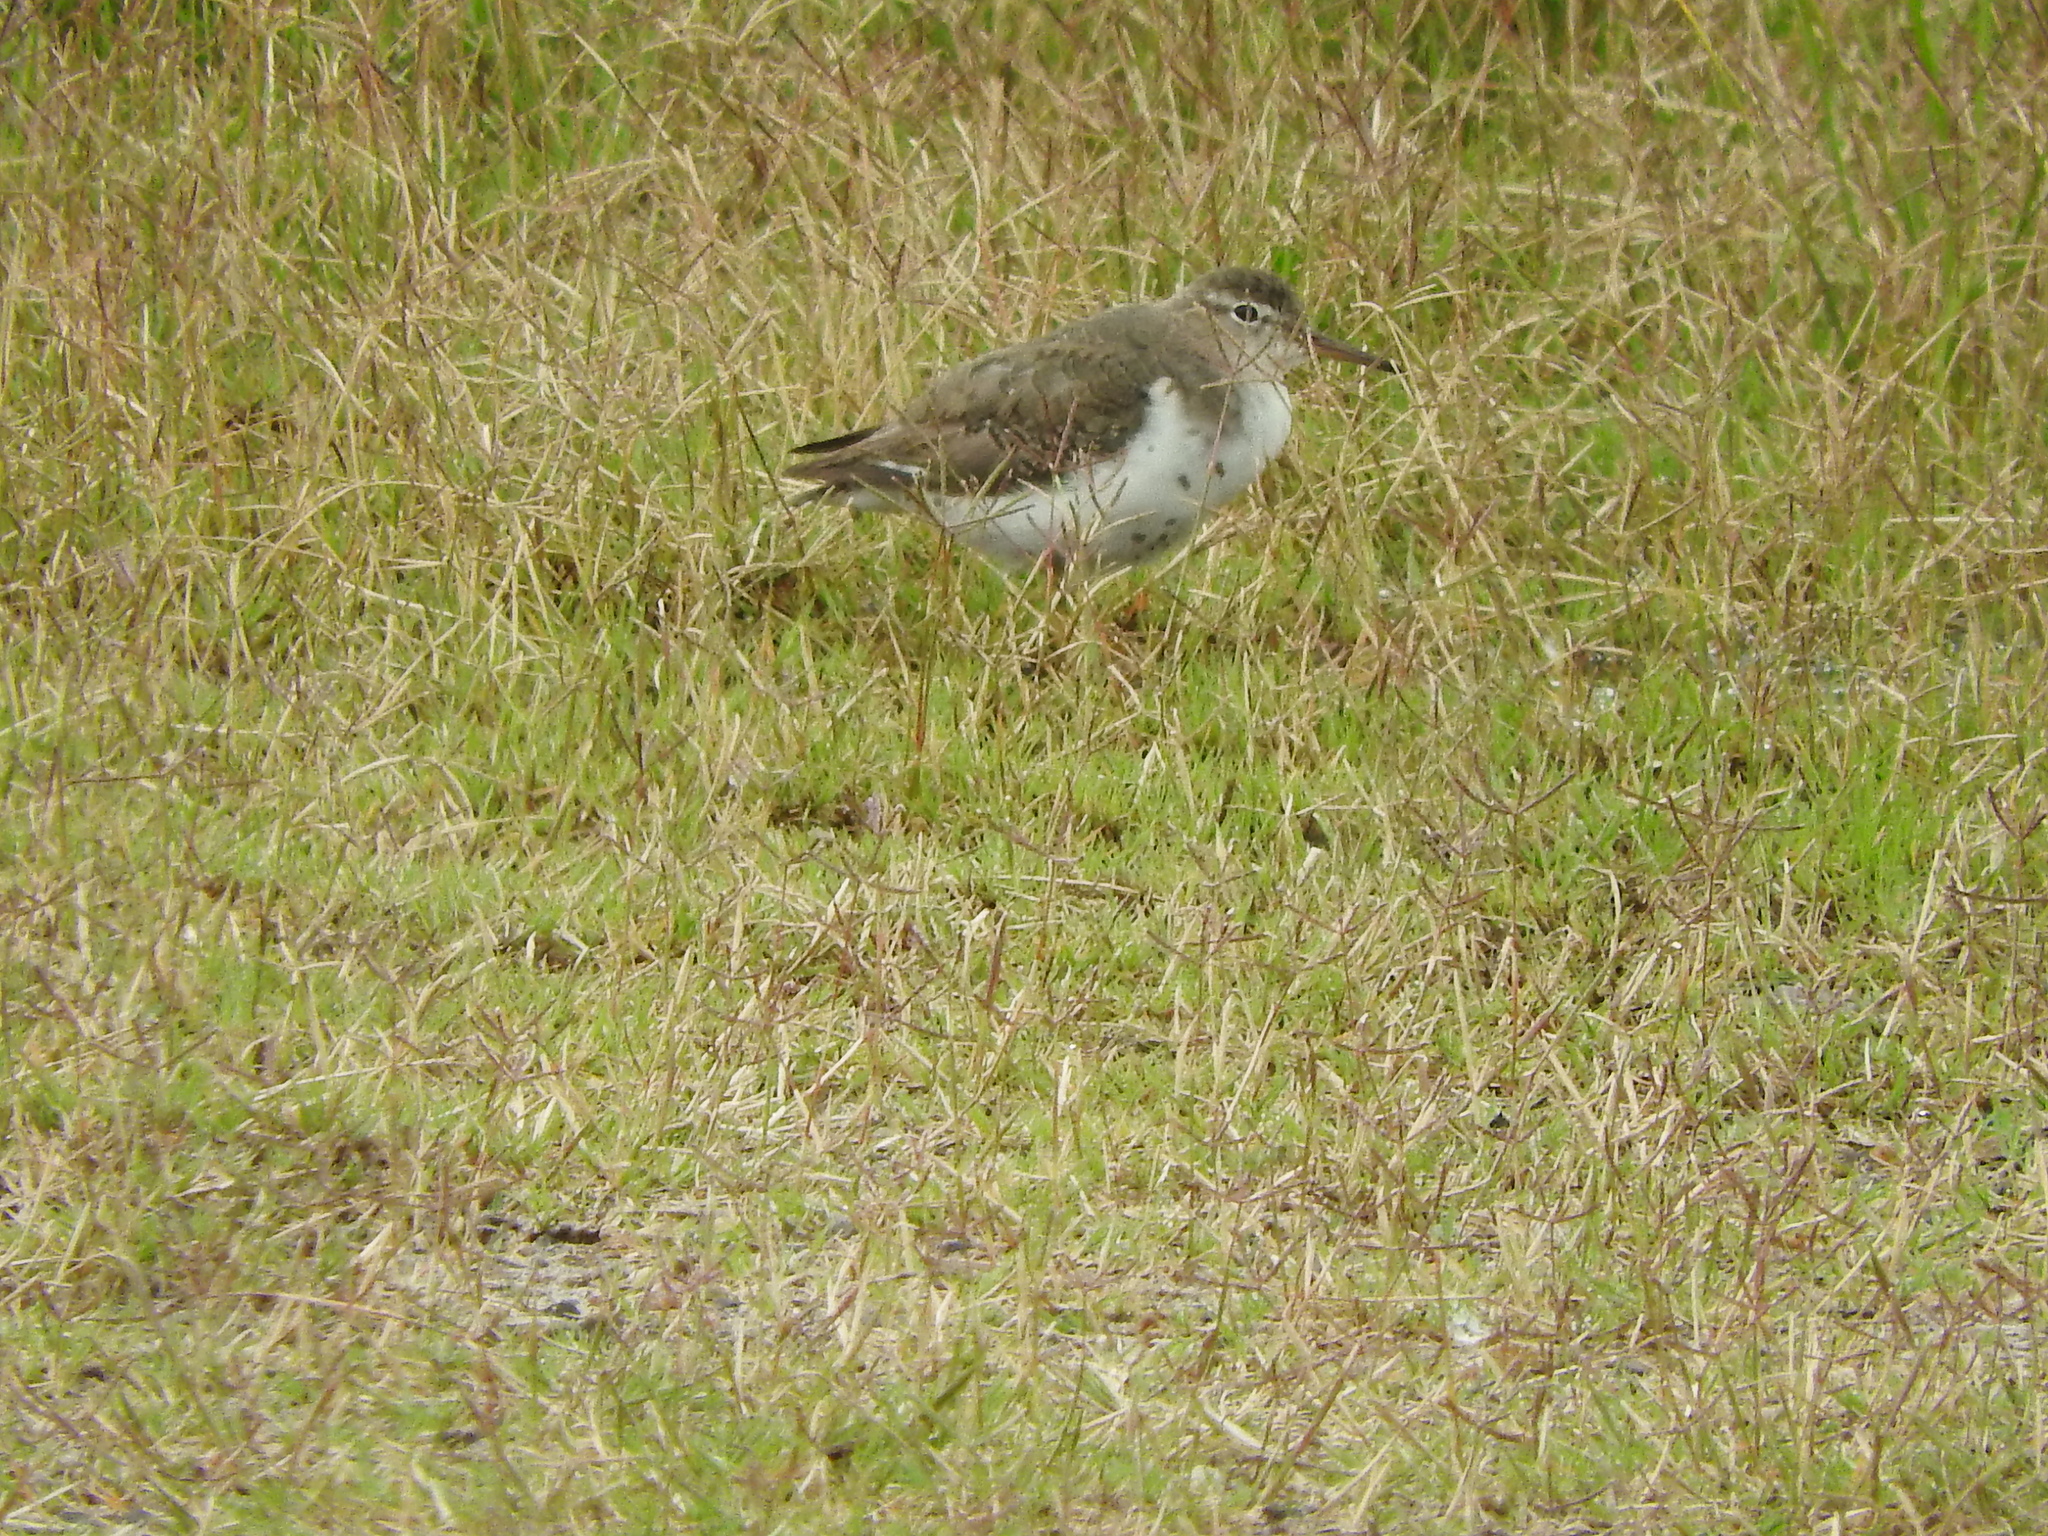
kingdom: Animalia
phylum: Chordata
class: Aves
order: Charadriiformes
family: Scolopacidae
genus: Actitis
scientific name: Actitis macularius
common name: Spotted sandpiper
